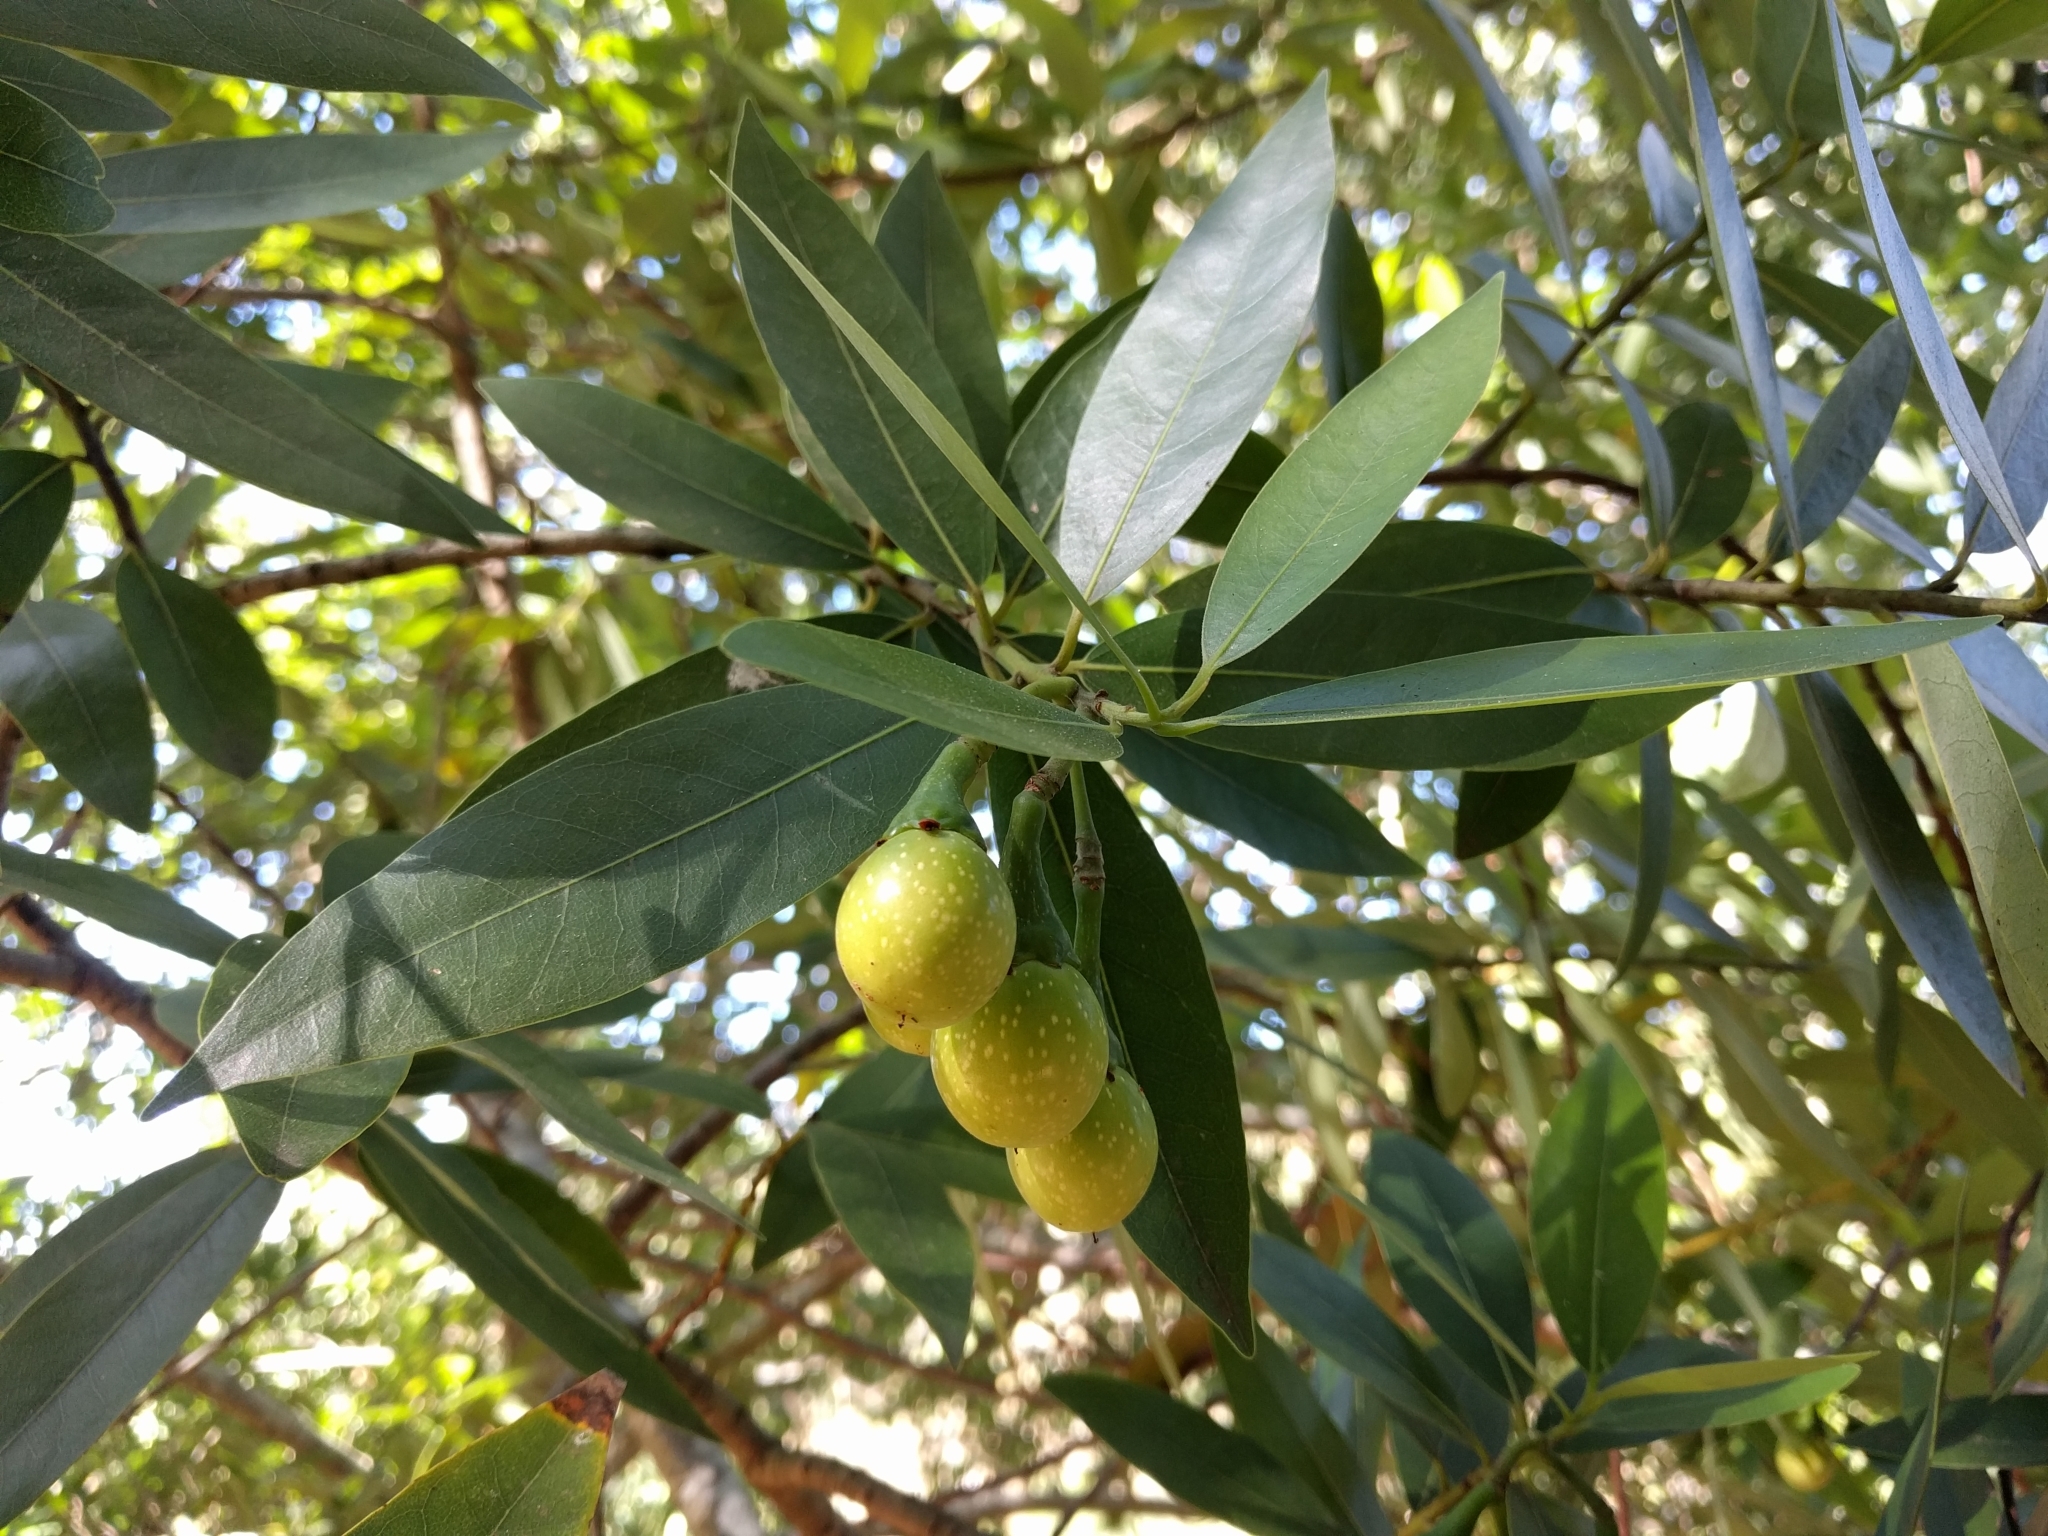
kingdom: Plantae
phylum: Tracheophyta
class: Magnoliopsida
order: Laurales
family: Lauraceae
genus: Umbellularia
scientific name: Umbellularia californica
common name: California bay
